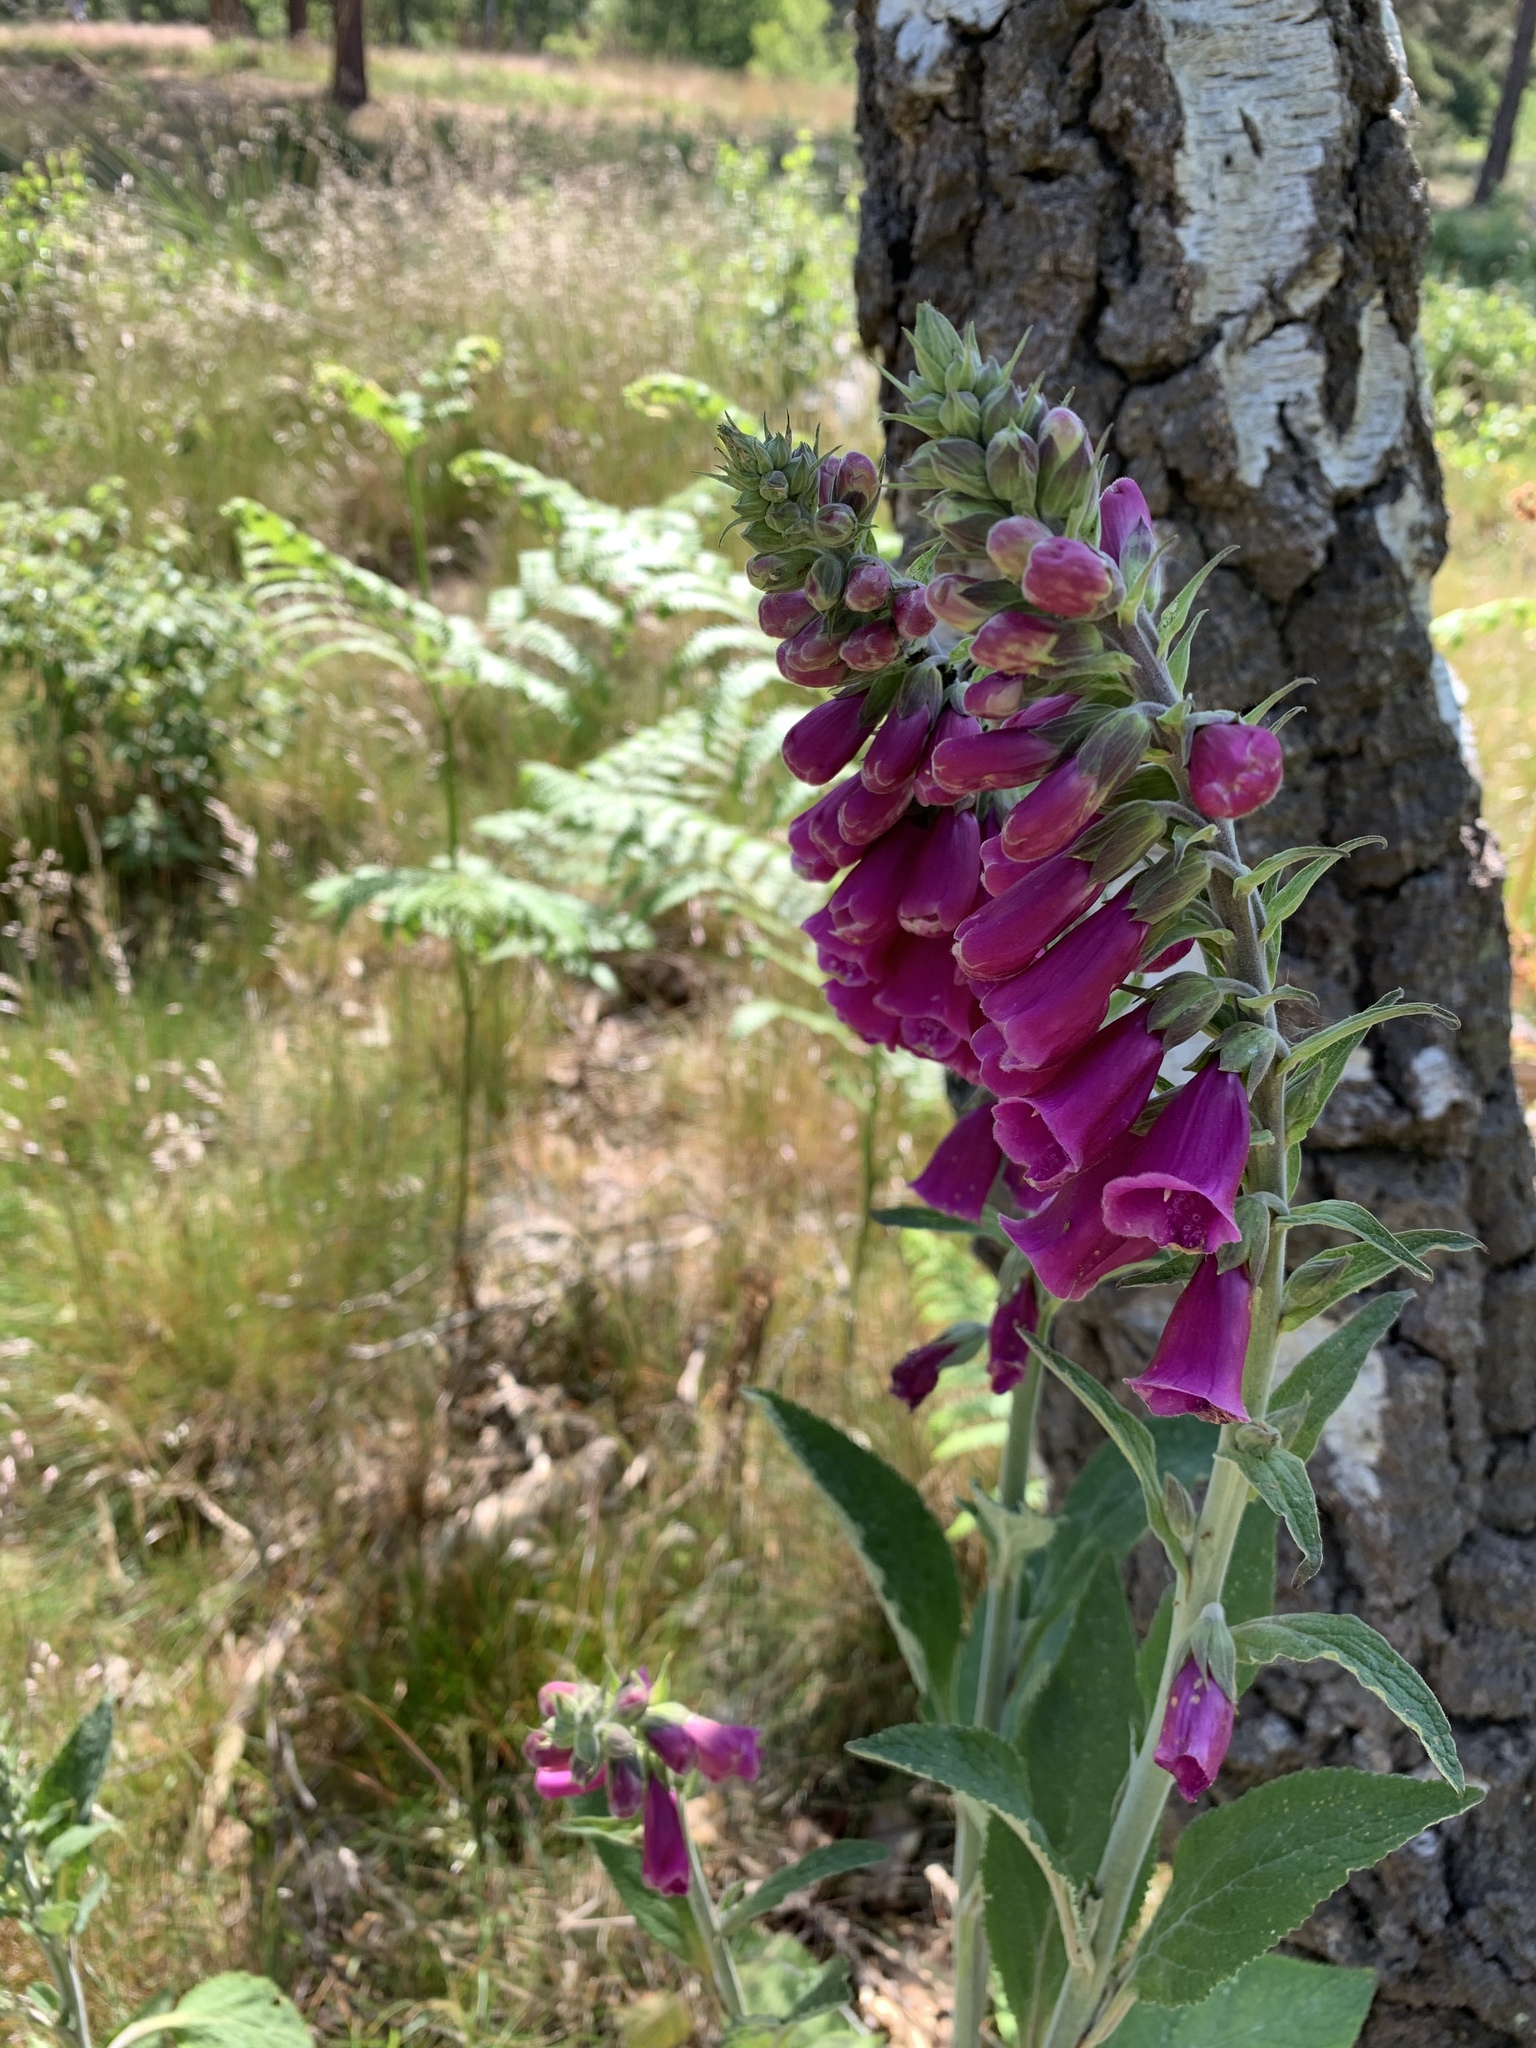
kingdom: Plantae
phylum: Tracheophyta
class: Magnoliopsida
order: Lamiales
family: Plantaginaceae
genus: Digitalis
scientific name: Digitalis purpurea
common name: Foxglove
